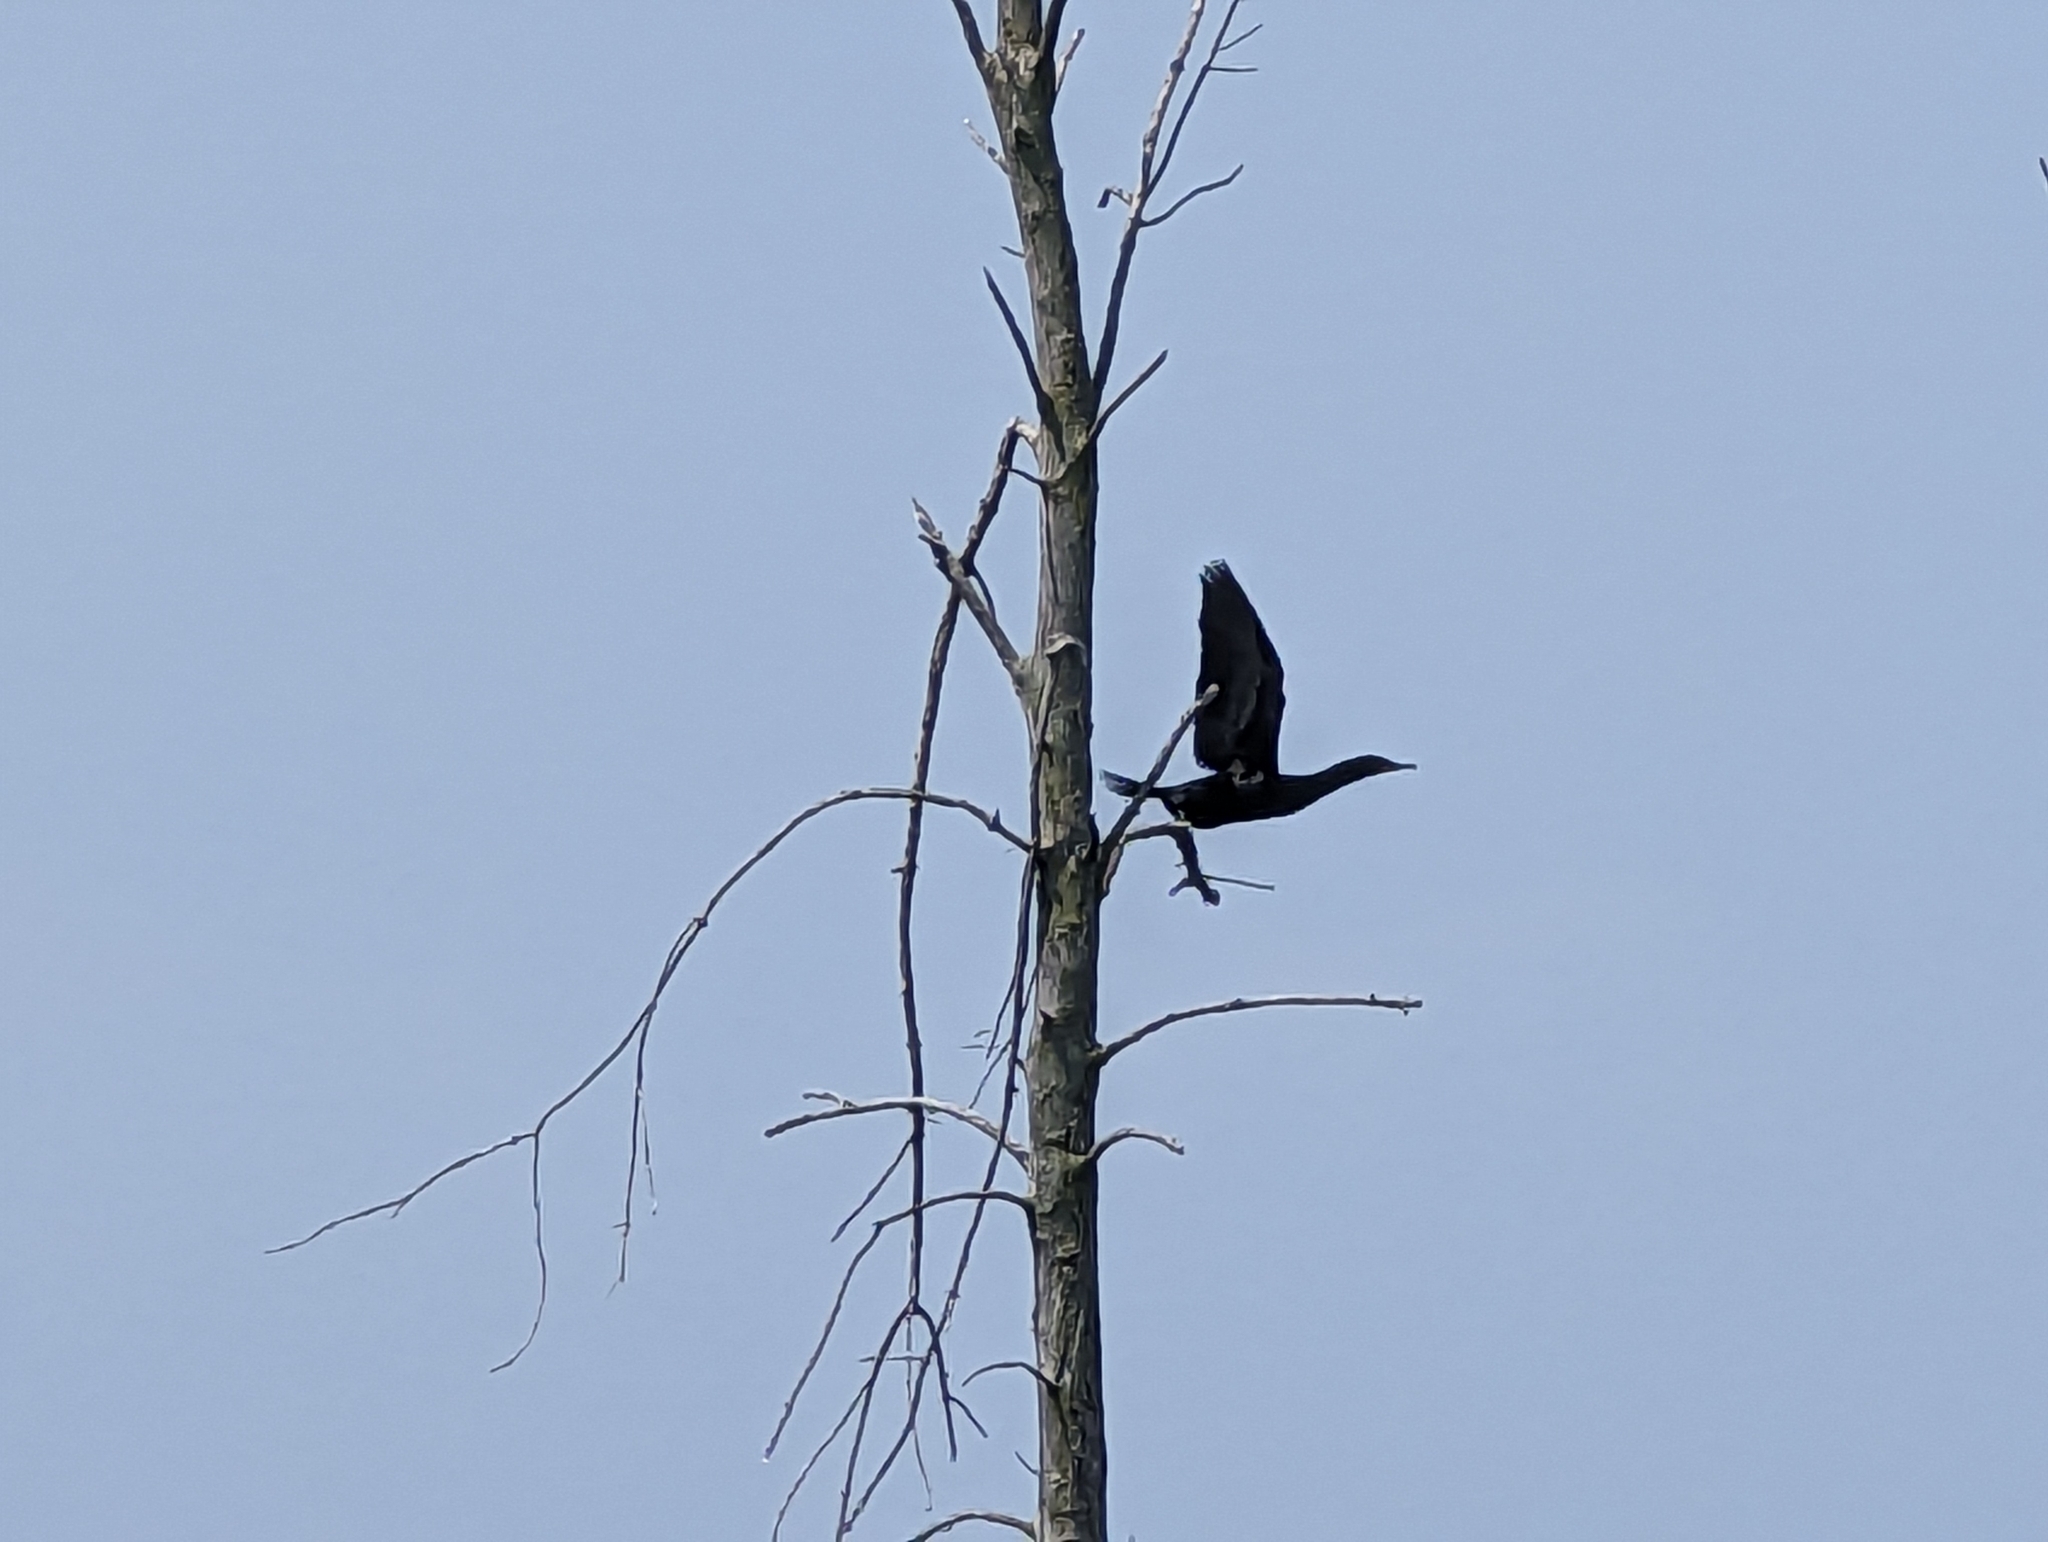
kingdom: Animalia
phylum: Chordata
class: Aves
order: Suliformes
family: Phalacrocoracidae
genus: Phalacrocorax
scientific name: Phalacrocorax auritus
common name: Double-crested cormorant
